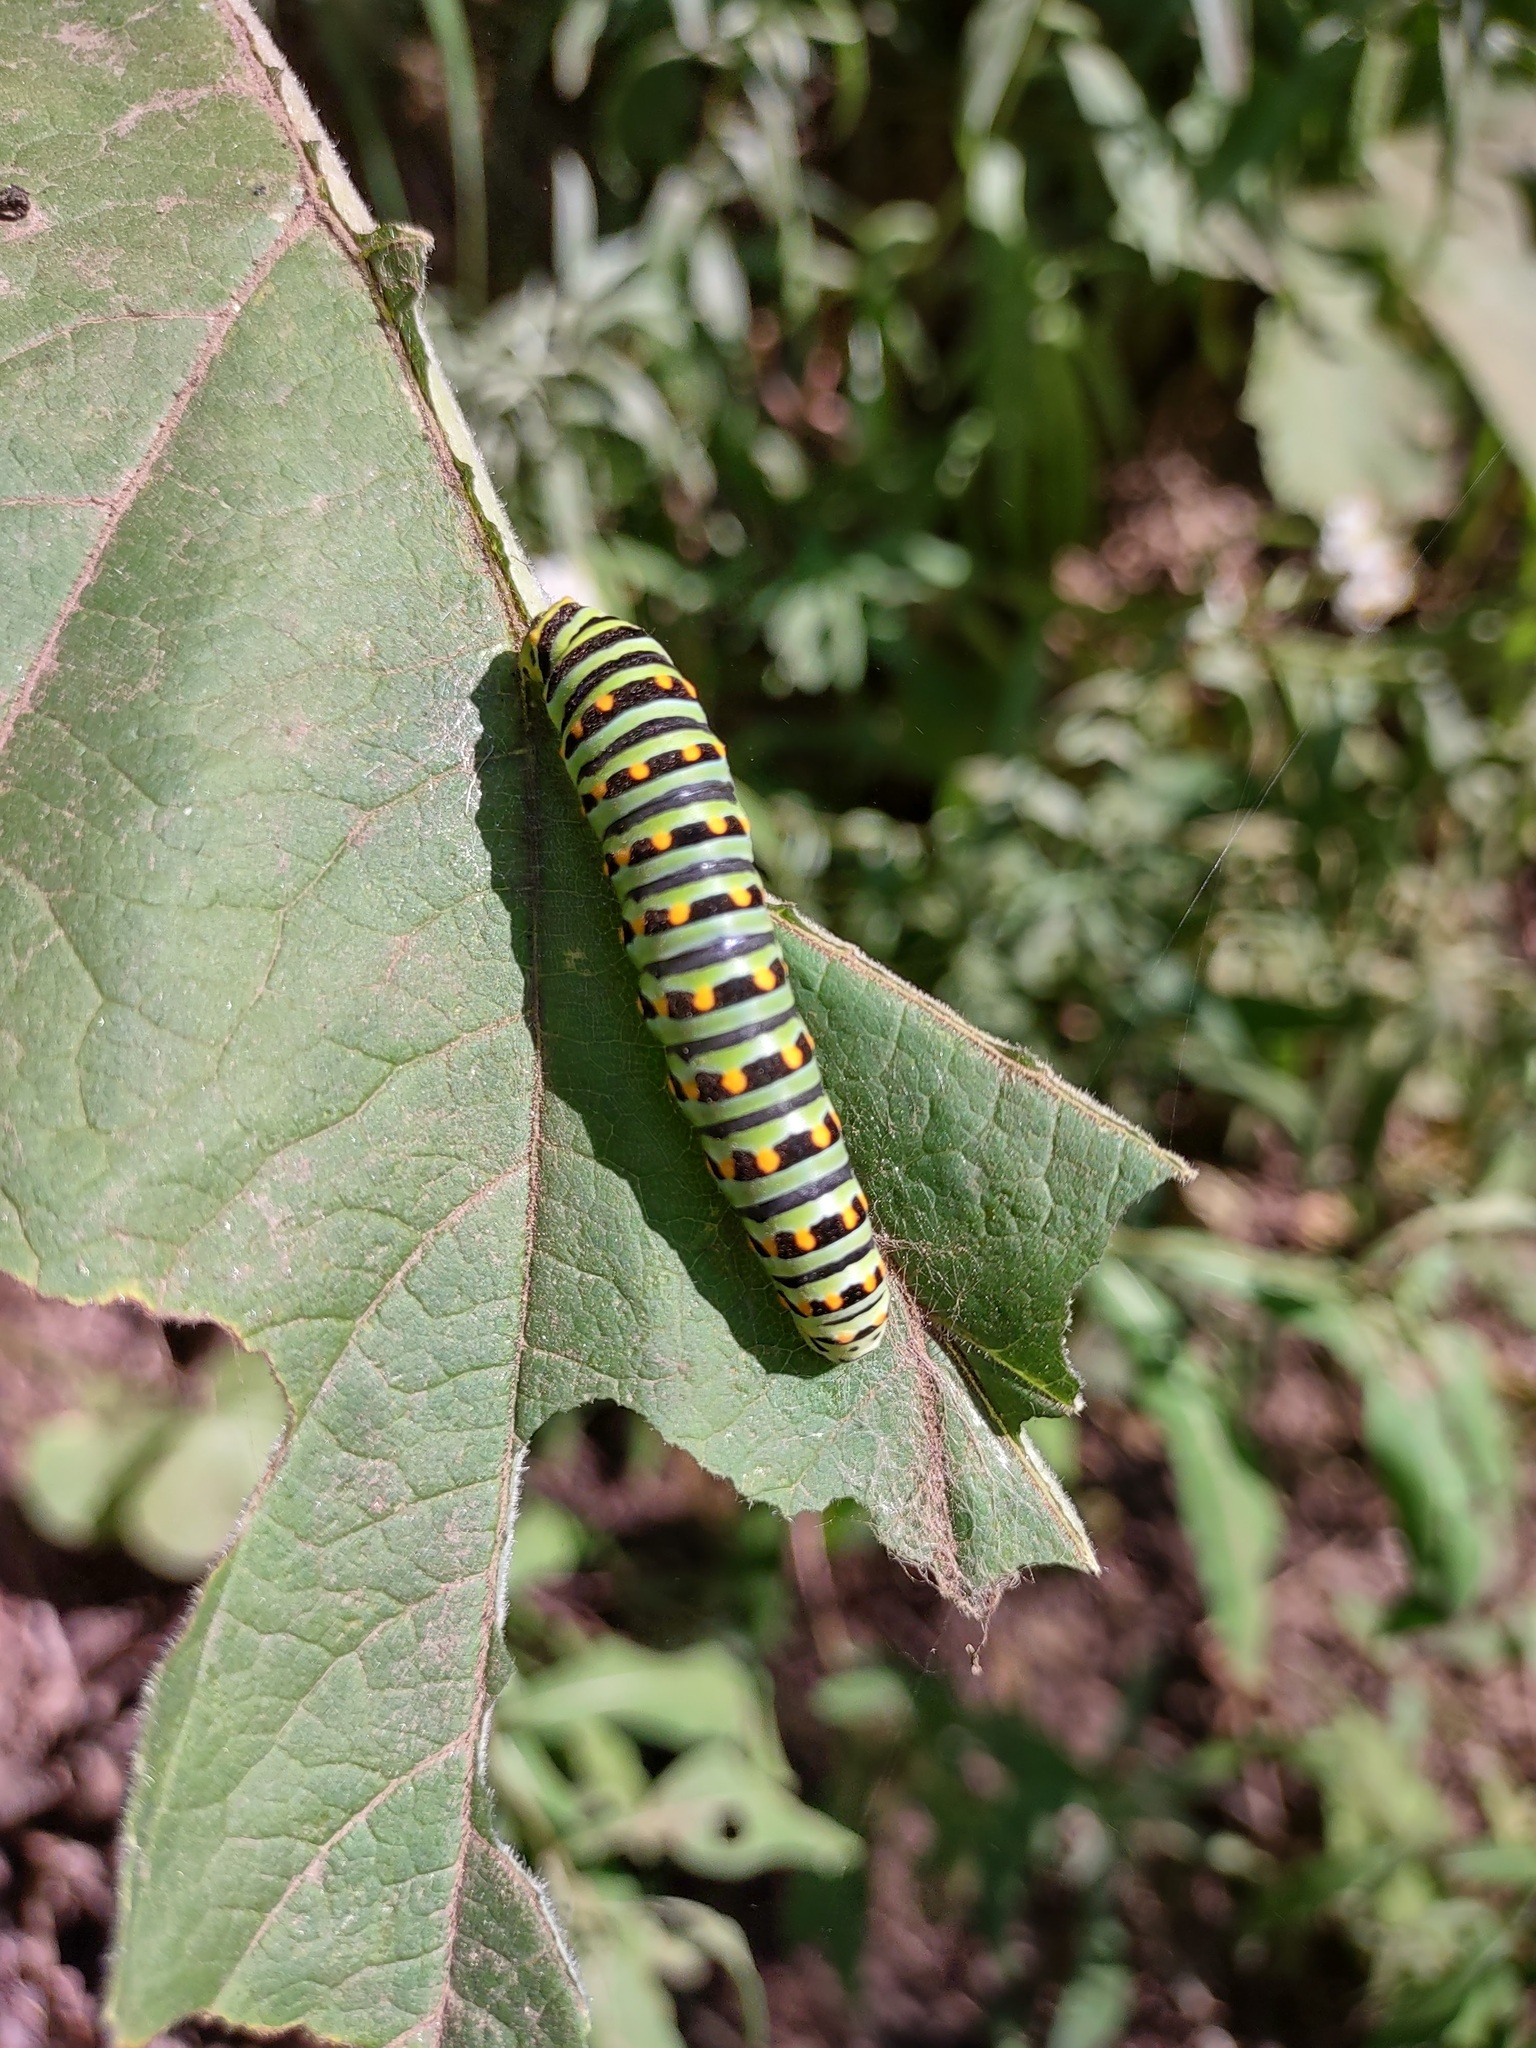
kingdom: Animalia
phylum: Arthropoda
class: Insecta
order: Lepidoptera
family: Papilionidae
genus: Papilio
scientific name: Papilio zelicaon
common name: Anise swallowtail
